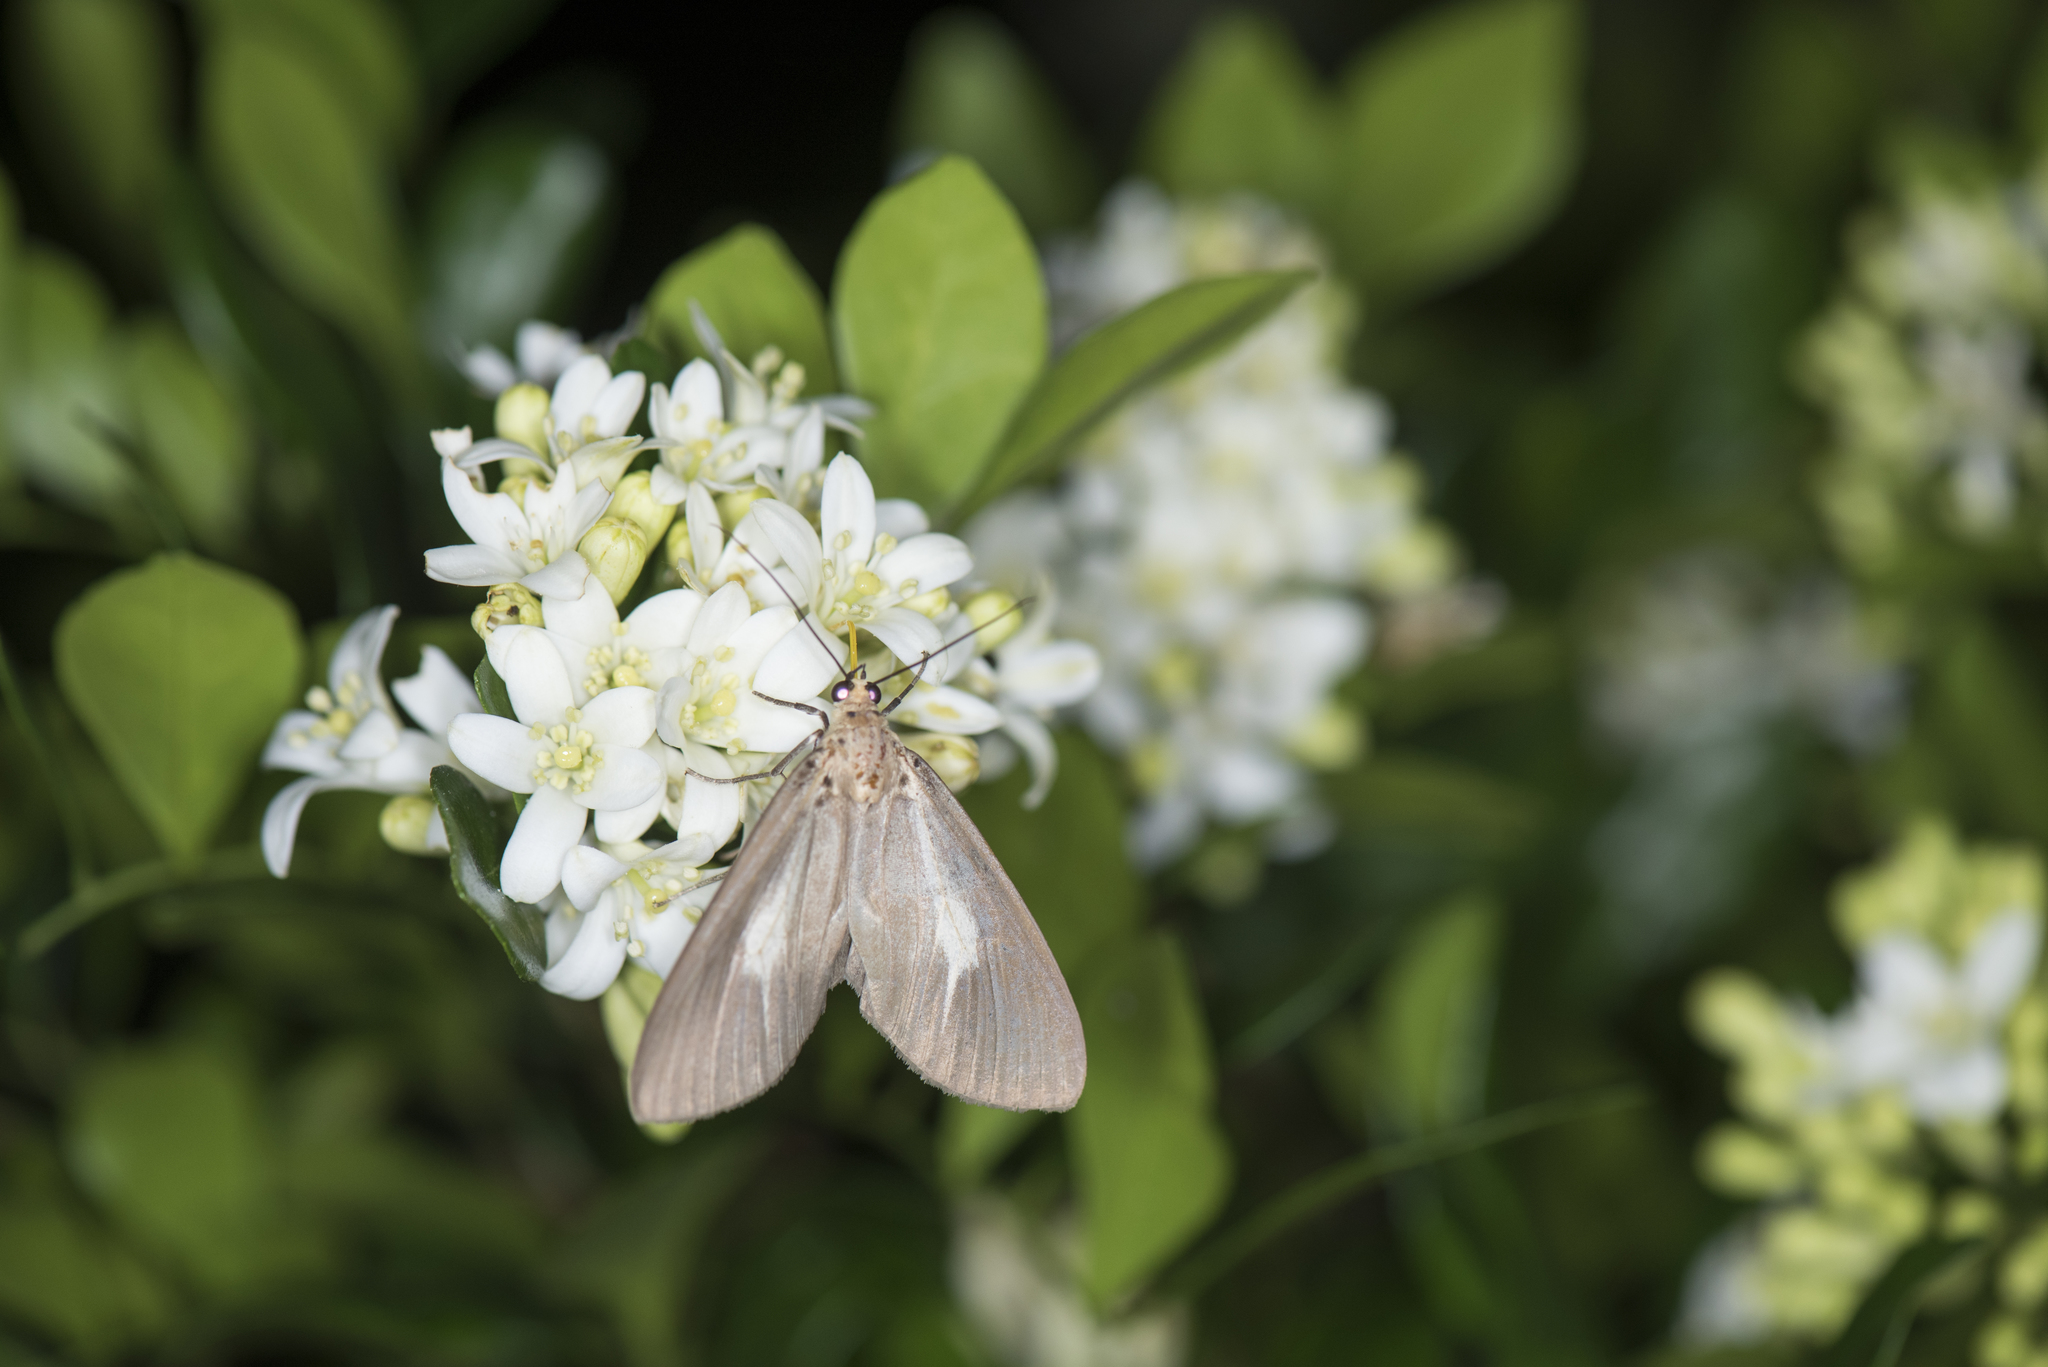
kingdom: Animalia
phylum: Arthropoda
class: Insecta
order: Lepidoptera
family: Erebidae
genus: Asota
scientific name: Asota heliconia
